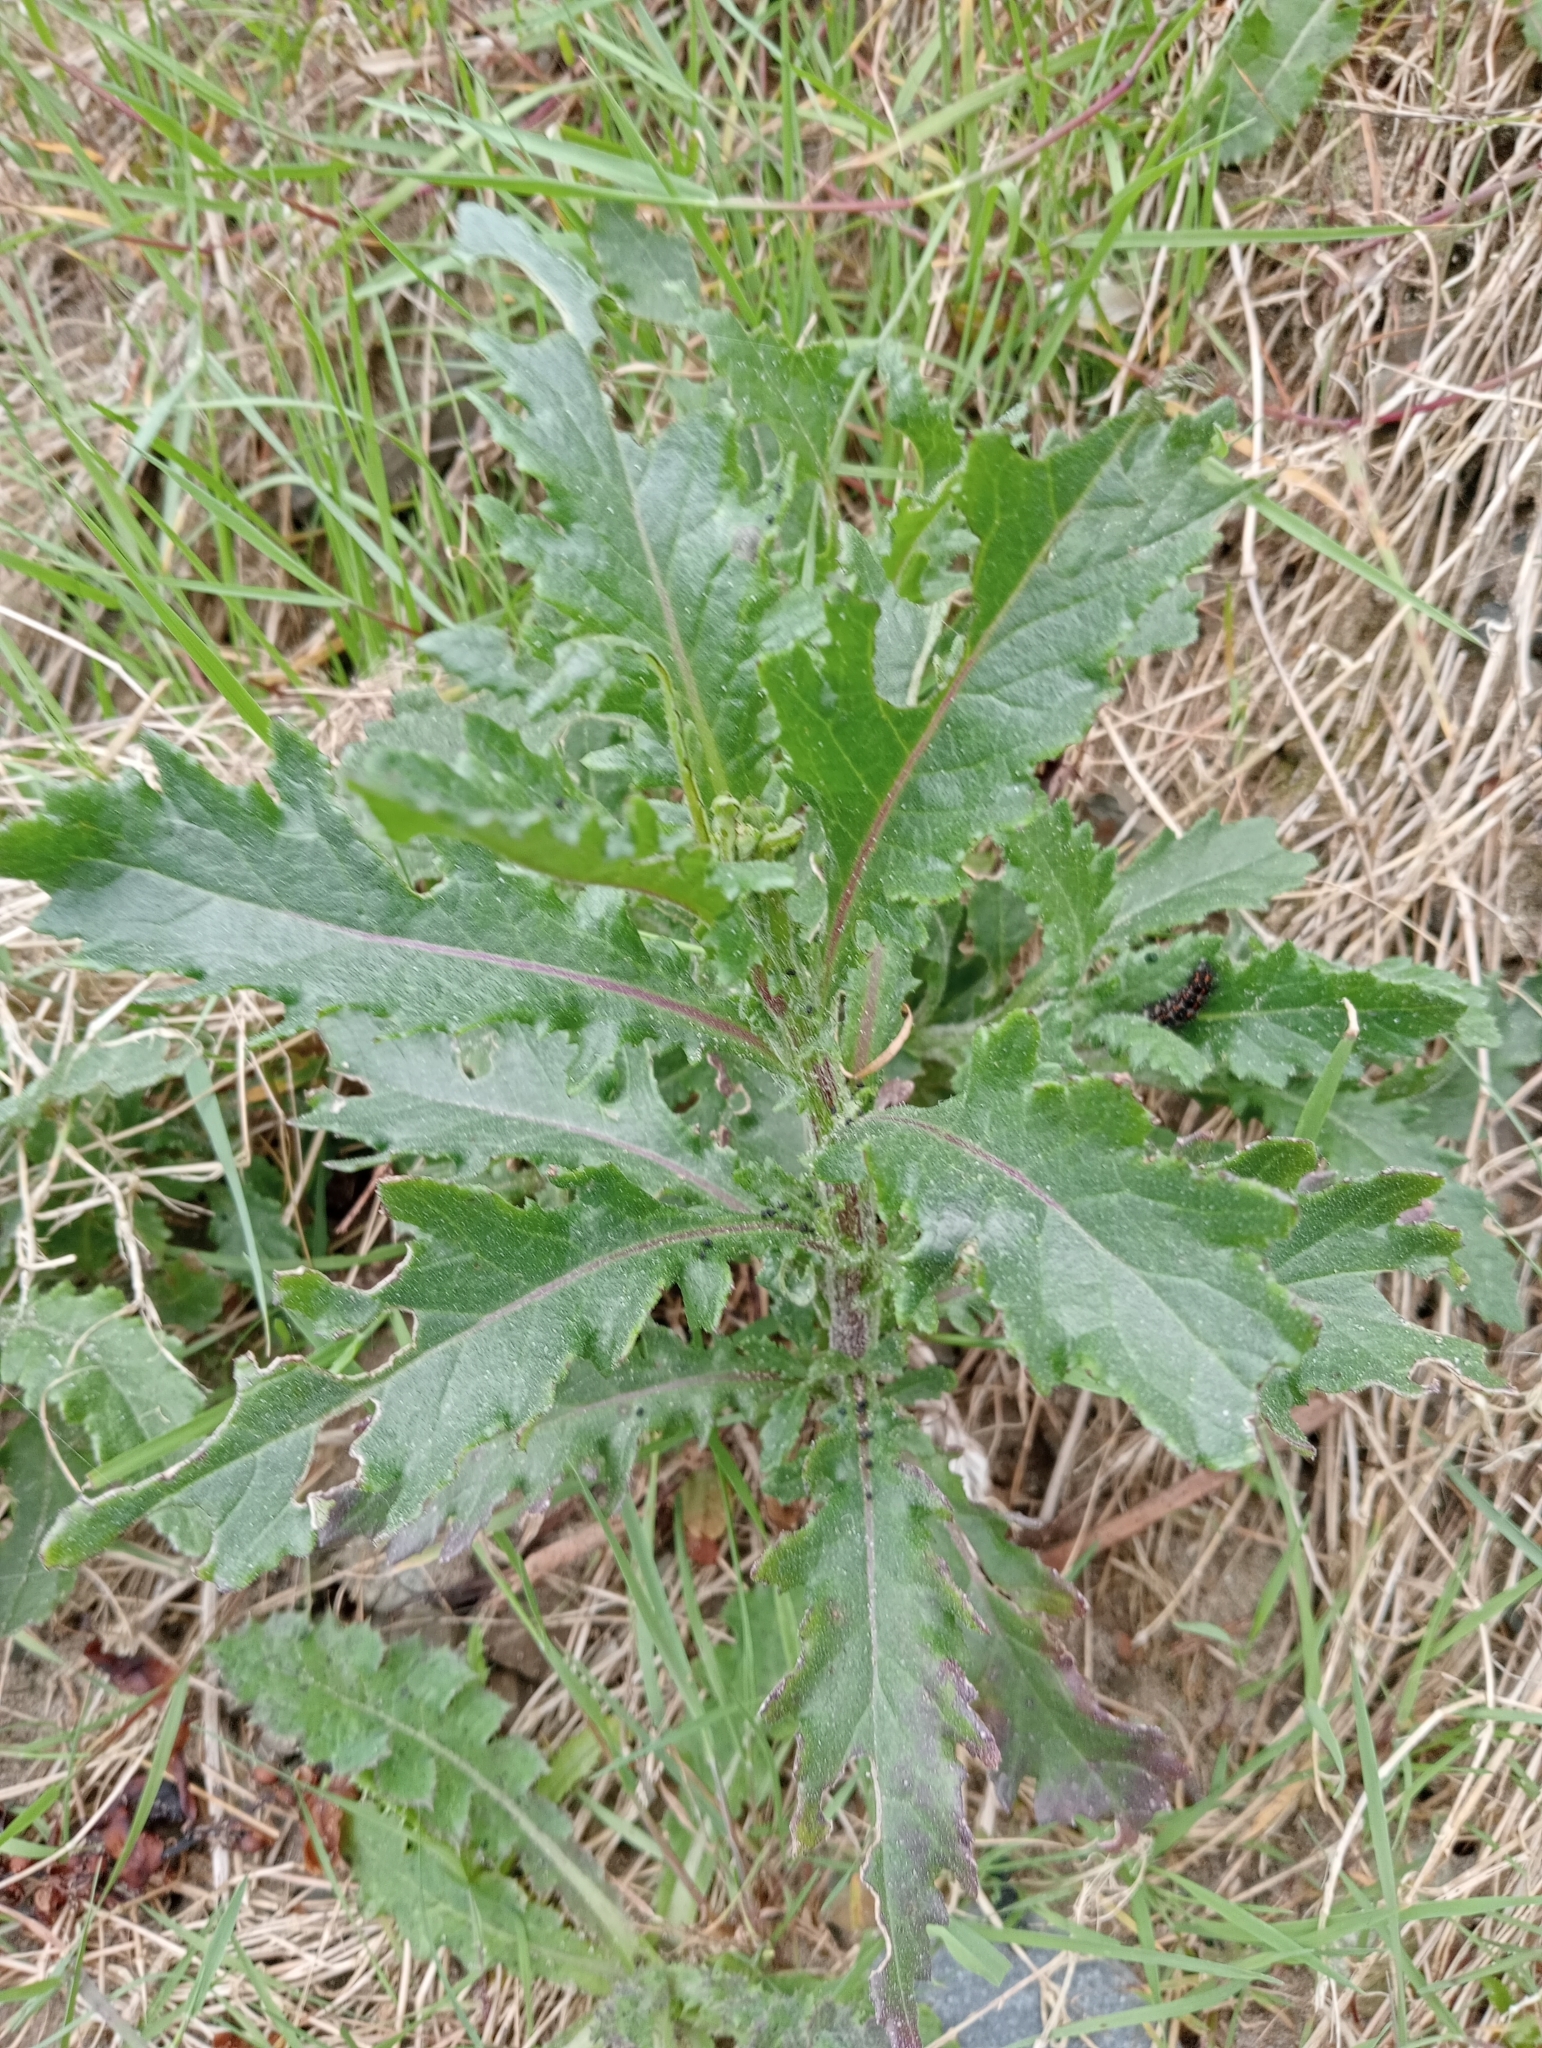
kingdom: Plantae
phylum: Tracheophyta
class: Magnoliopsida
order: Asterales
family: Asteraceae
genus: Senecio
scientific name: Senecio biserratus
